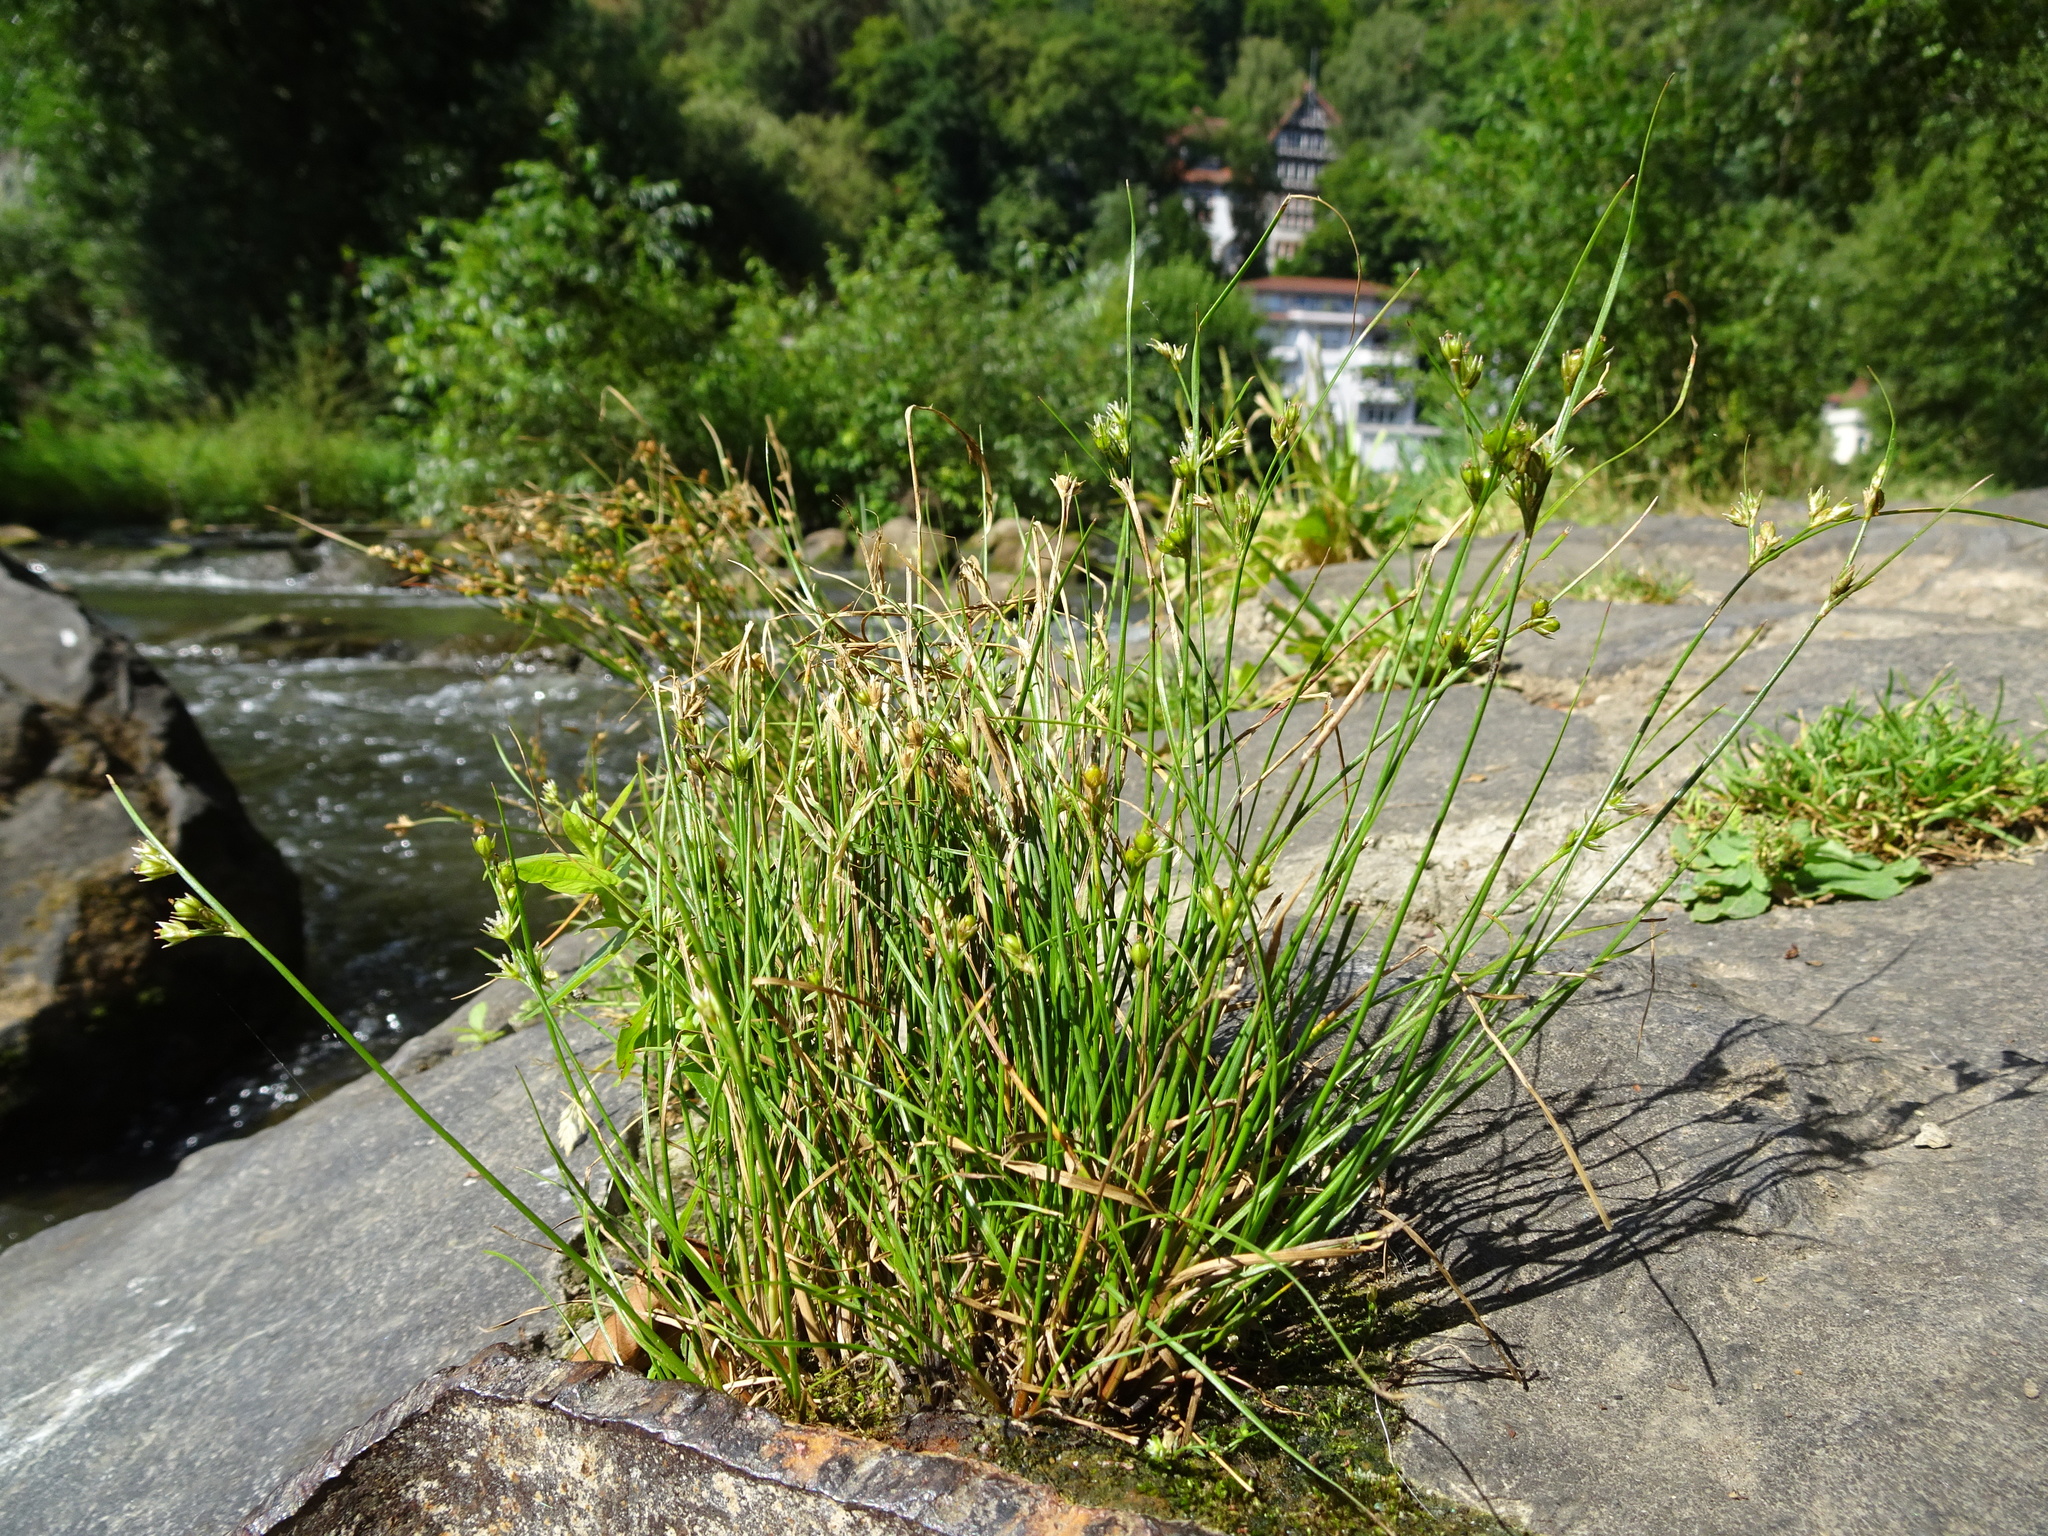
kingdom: Plantae
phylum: Tracheophyta
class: Liliopsida
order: Poales
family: Juncaceae
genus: Juncus
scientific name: Juncus tenuis
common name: Slender rush
